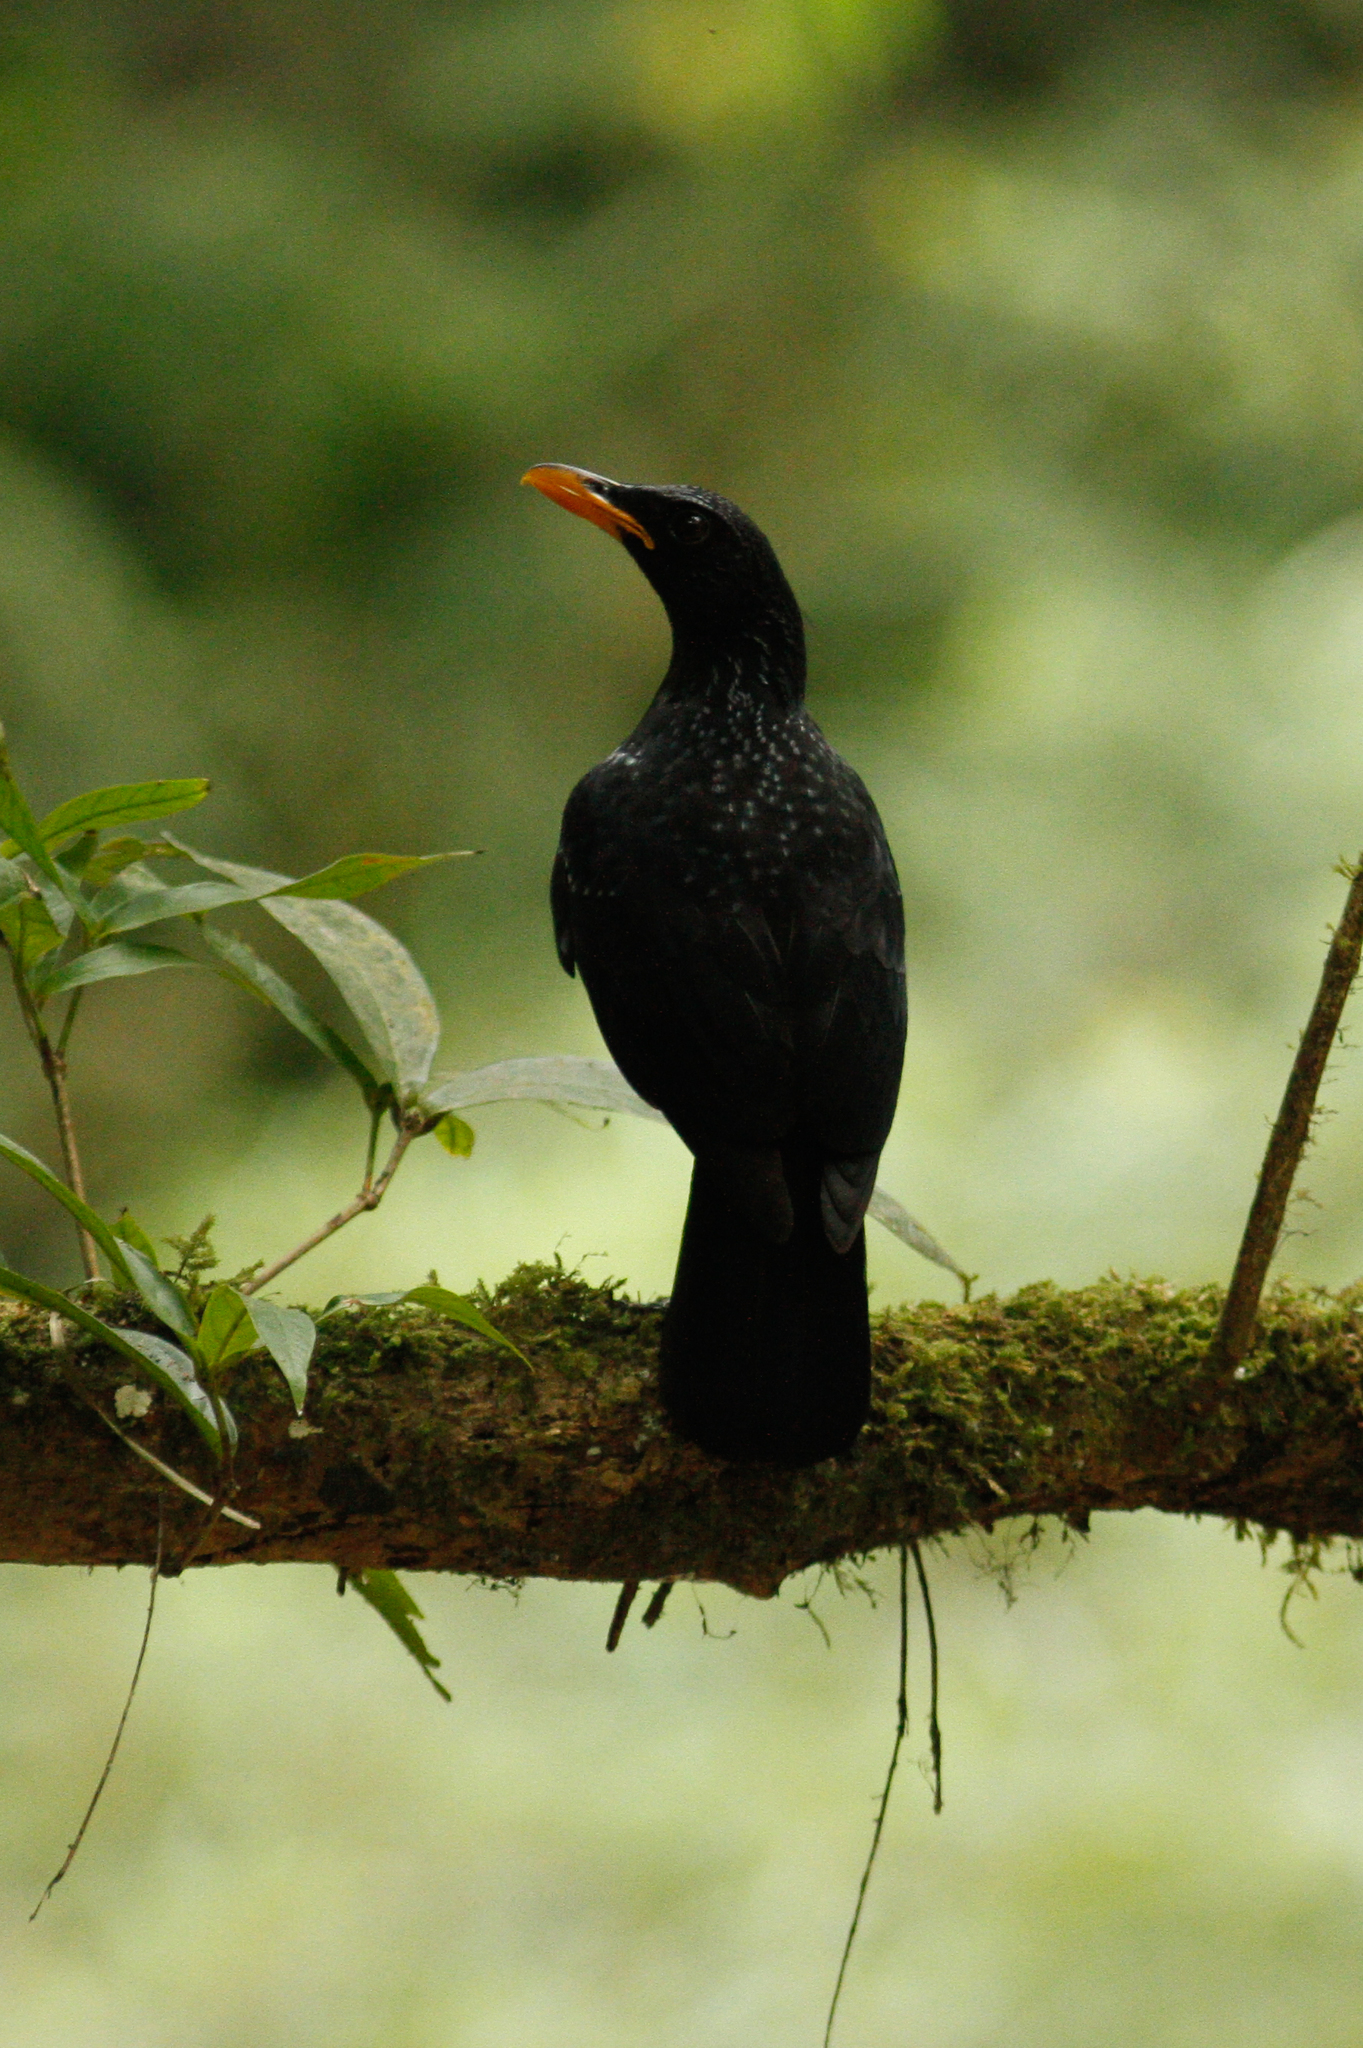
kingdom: Animalia
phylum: Chordata
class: Aves
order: Passeriformes
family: Muscicapidae
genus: Myophonus
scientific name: Myophonus caeruleus
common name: Blue whistling-thrush
